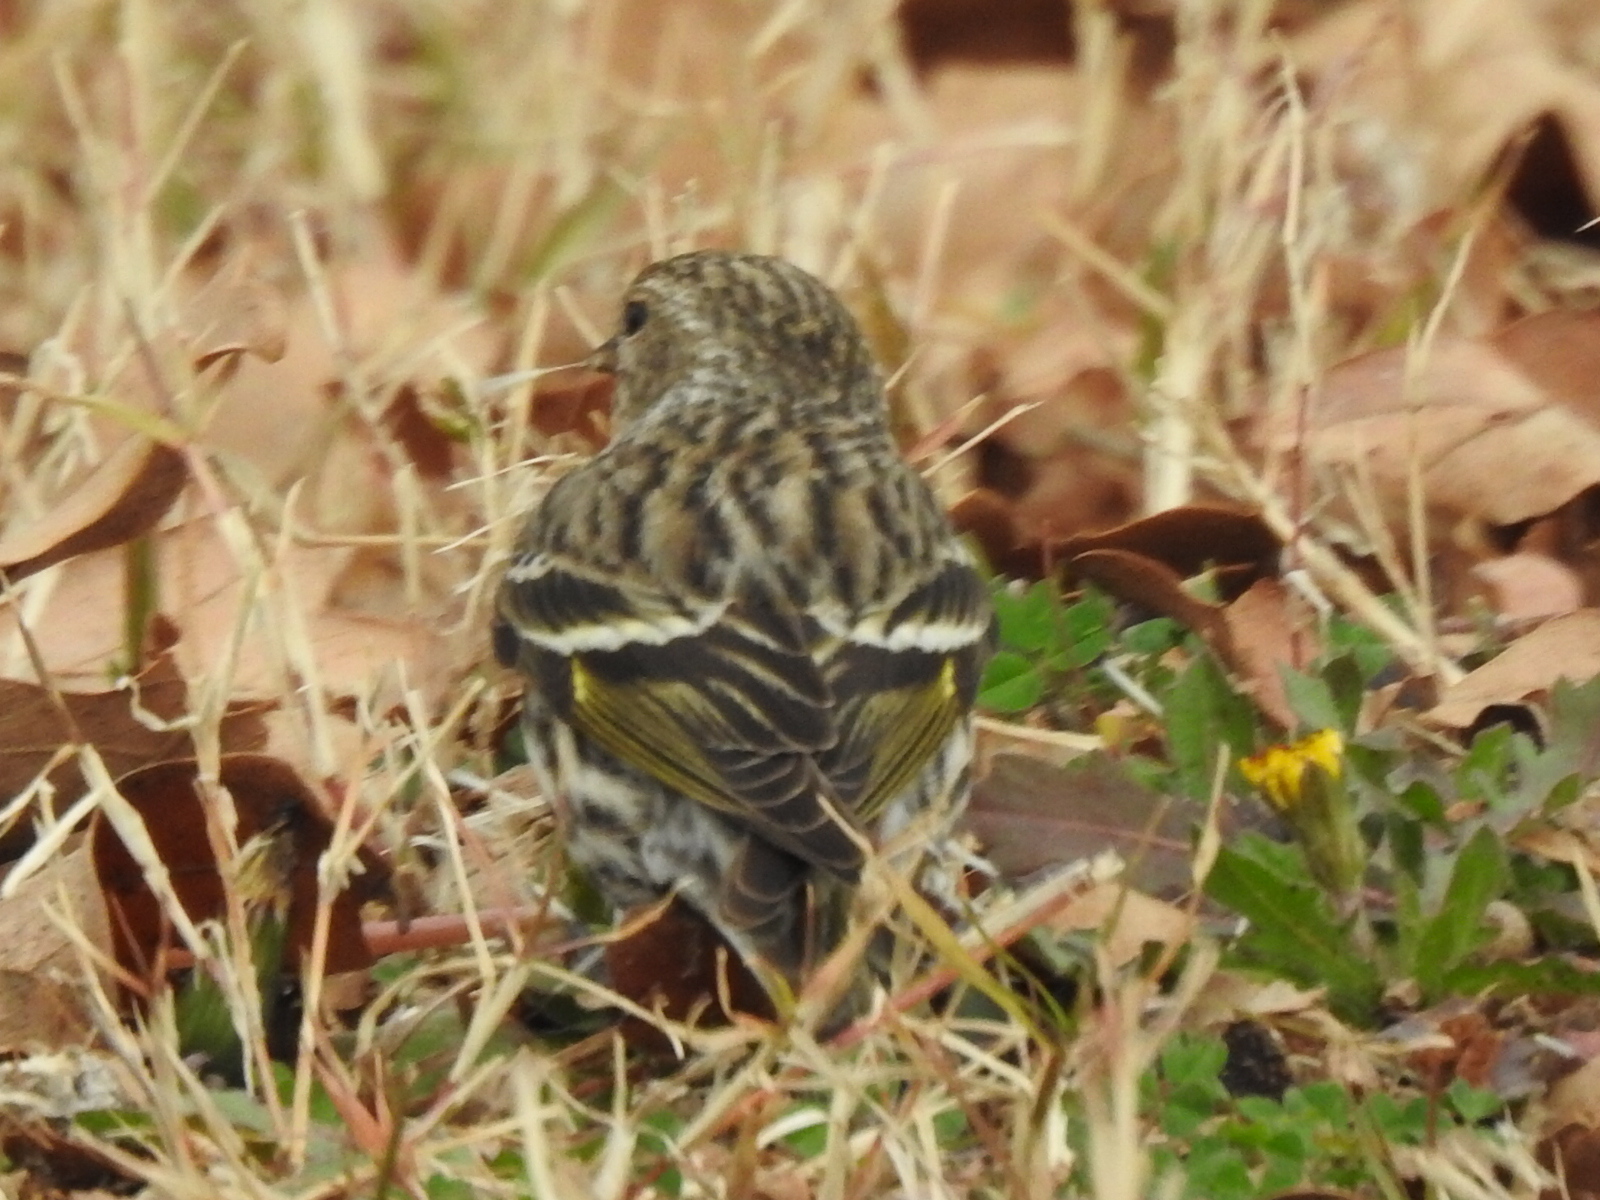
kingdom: Animalia
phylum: Chordata
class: Aves
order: Passeriformes
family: Fringillidae
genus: Spinus
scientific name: Spinus pinus
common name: Pine siskin
